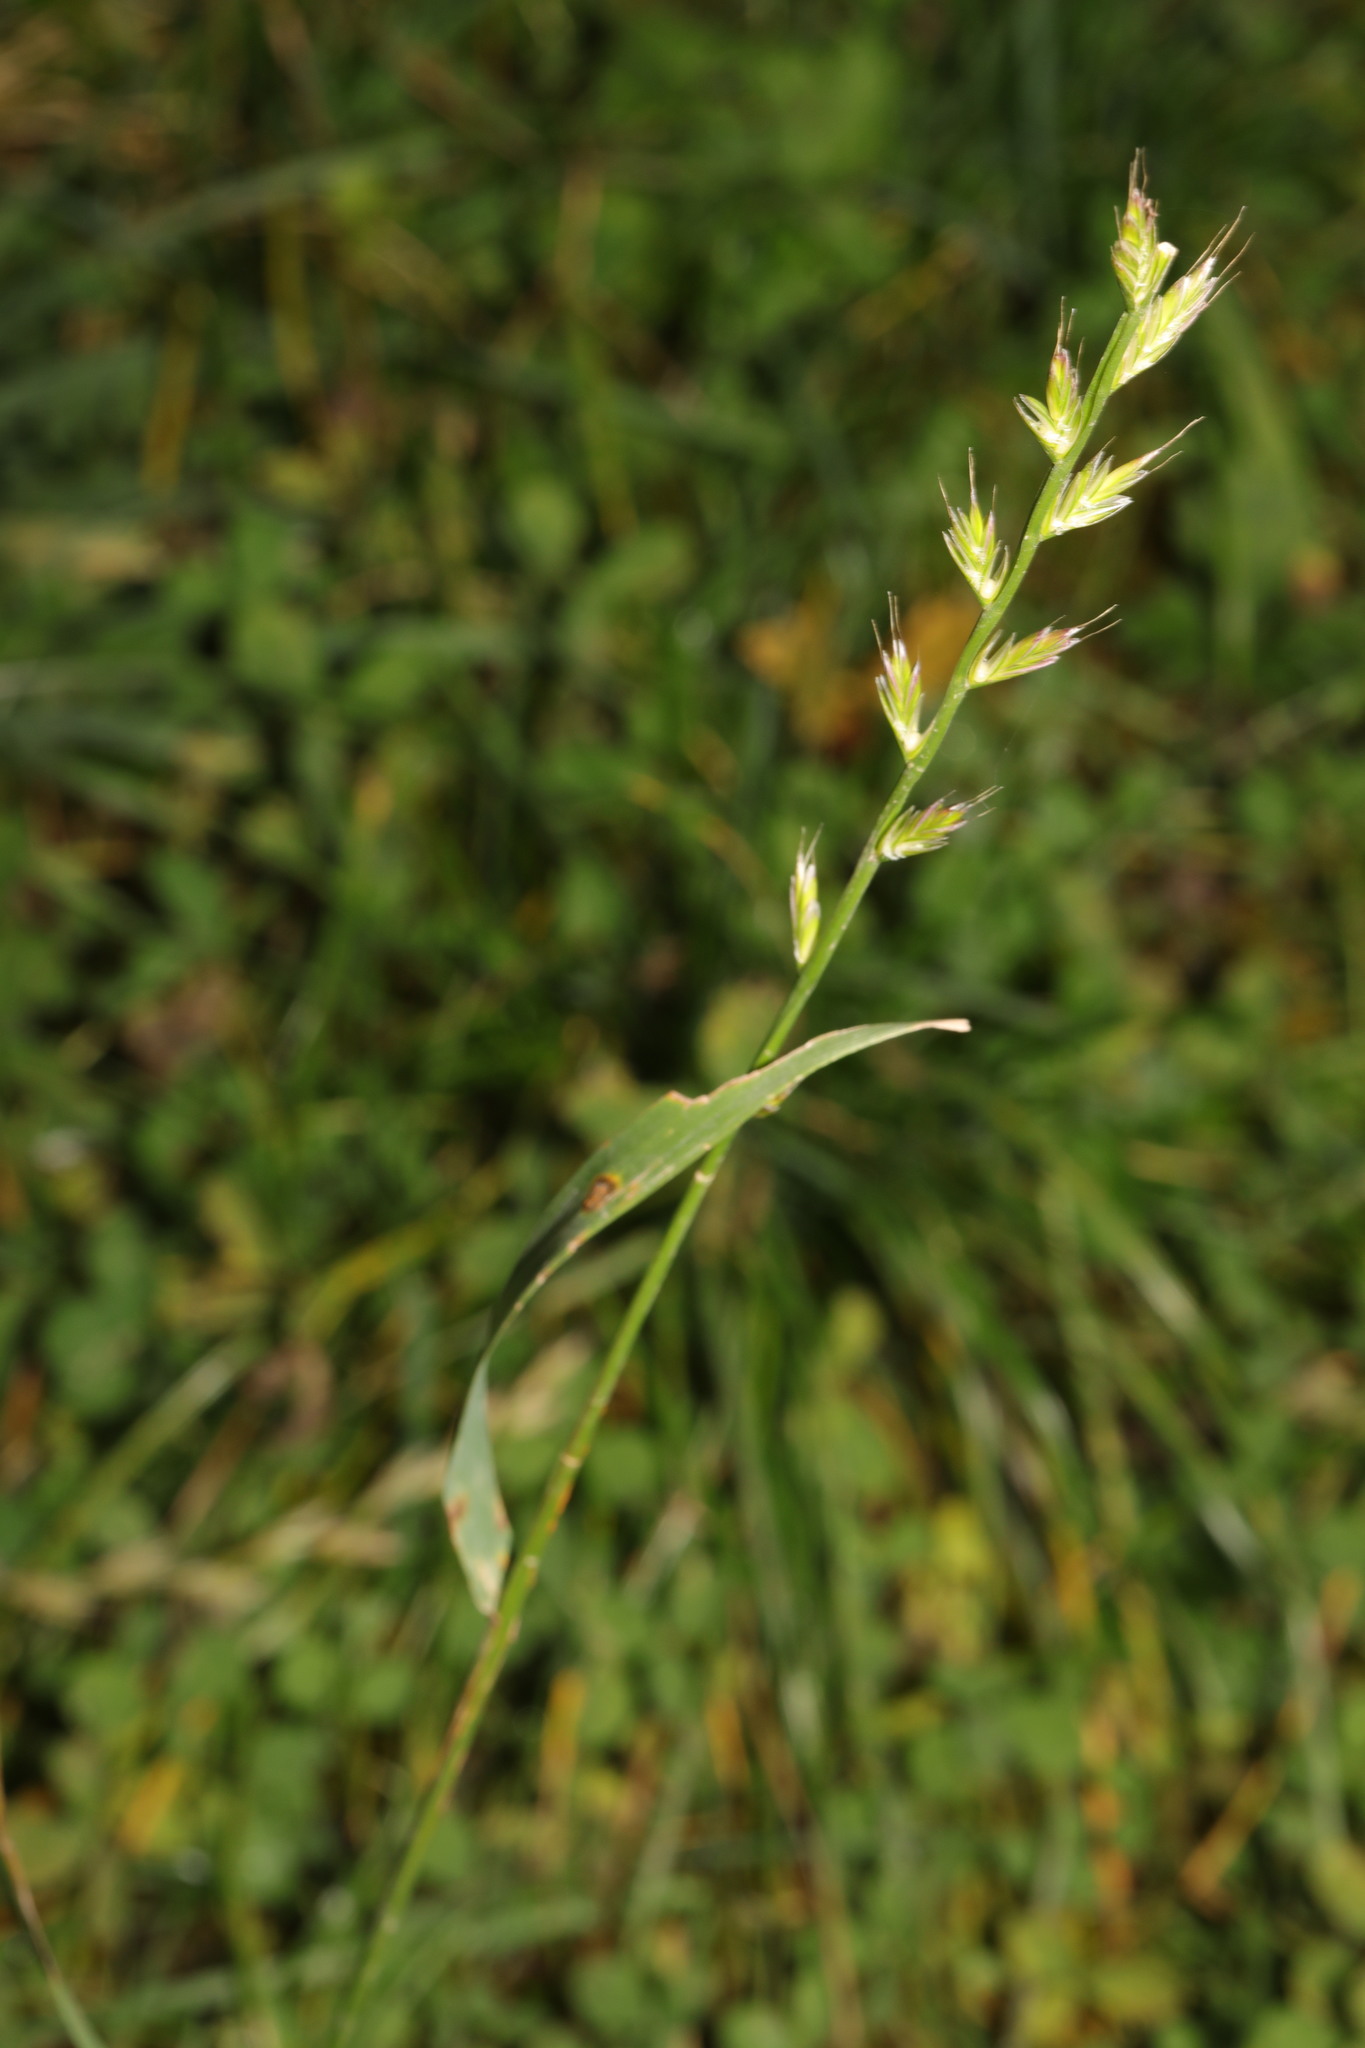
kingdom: Plantae
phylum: Tracheophyta
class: Liliopsida
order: Poales
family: Poaceae
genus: Lolium
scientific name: Lolium perenne
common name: Perennial ryegrass
